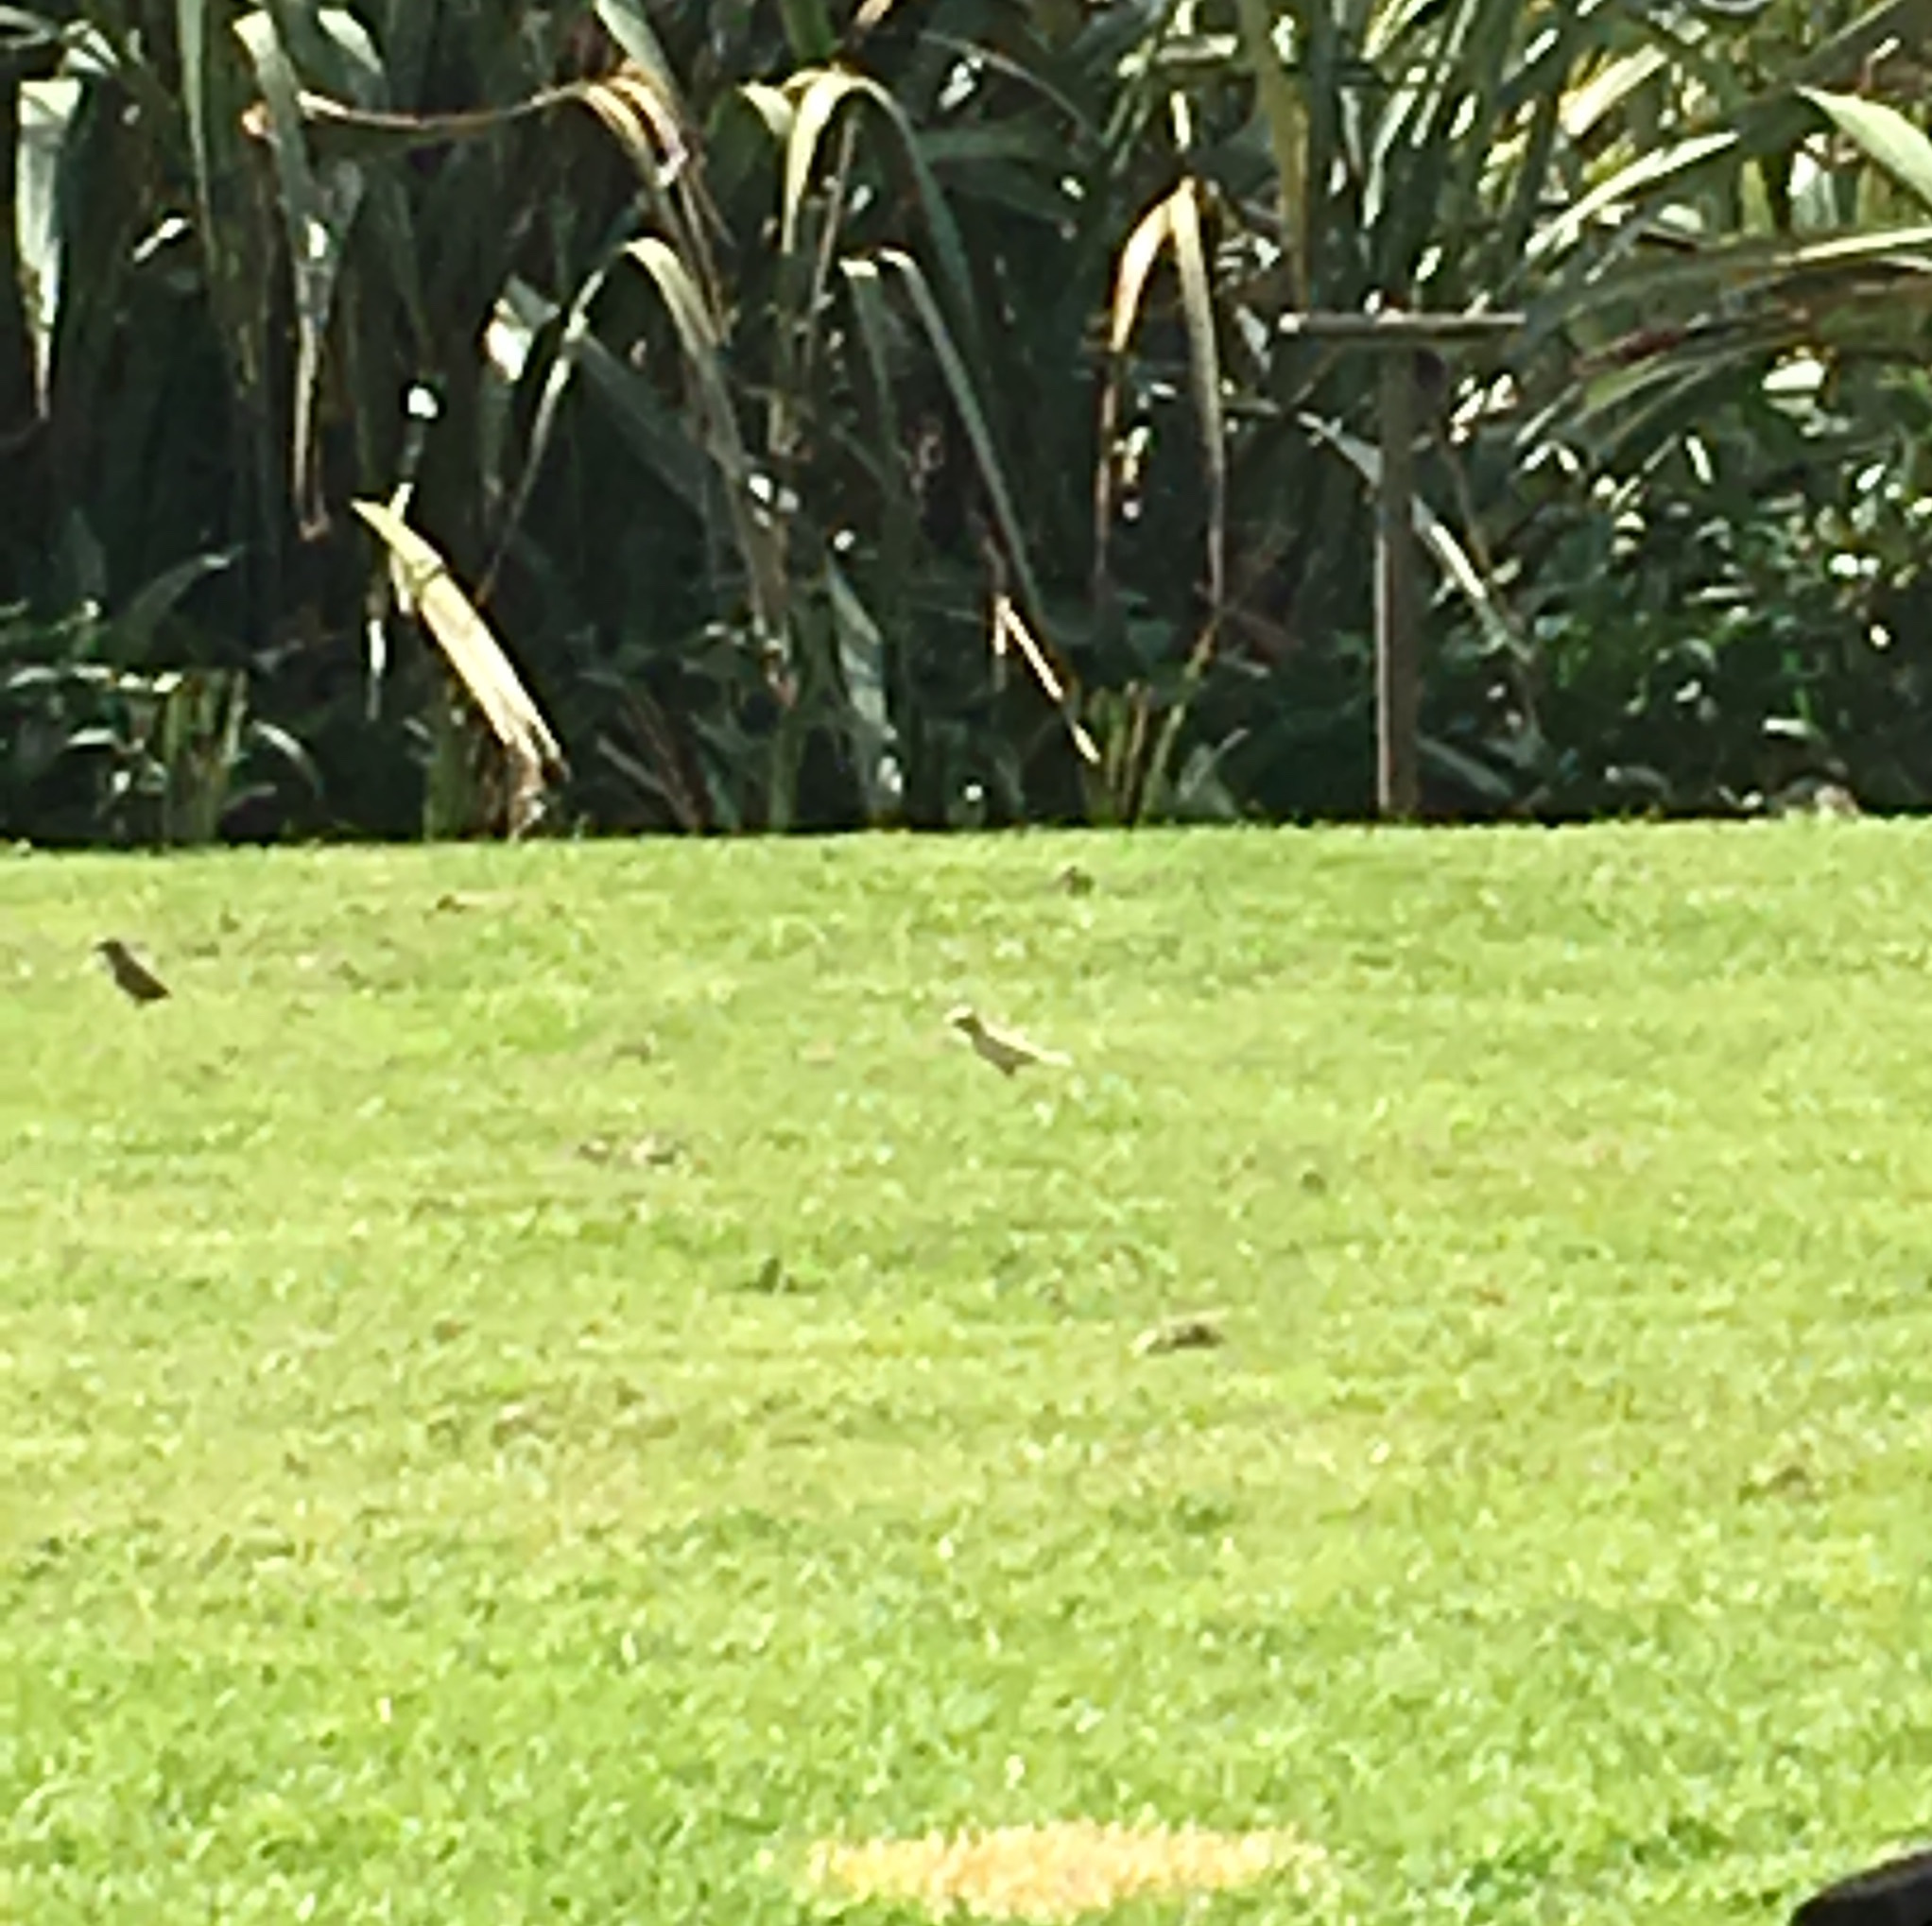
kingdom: Animalia
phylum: Chordata
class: Aves
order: Passeriformes
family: Passeridae
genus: Passer
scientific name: Passer domesticus
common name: House sparrow
